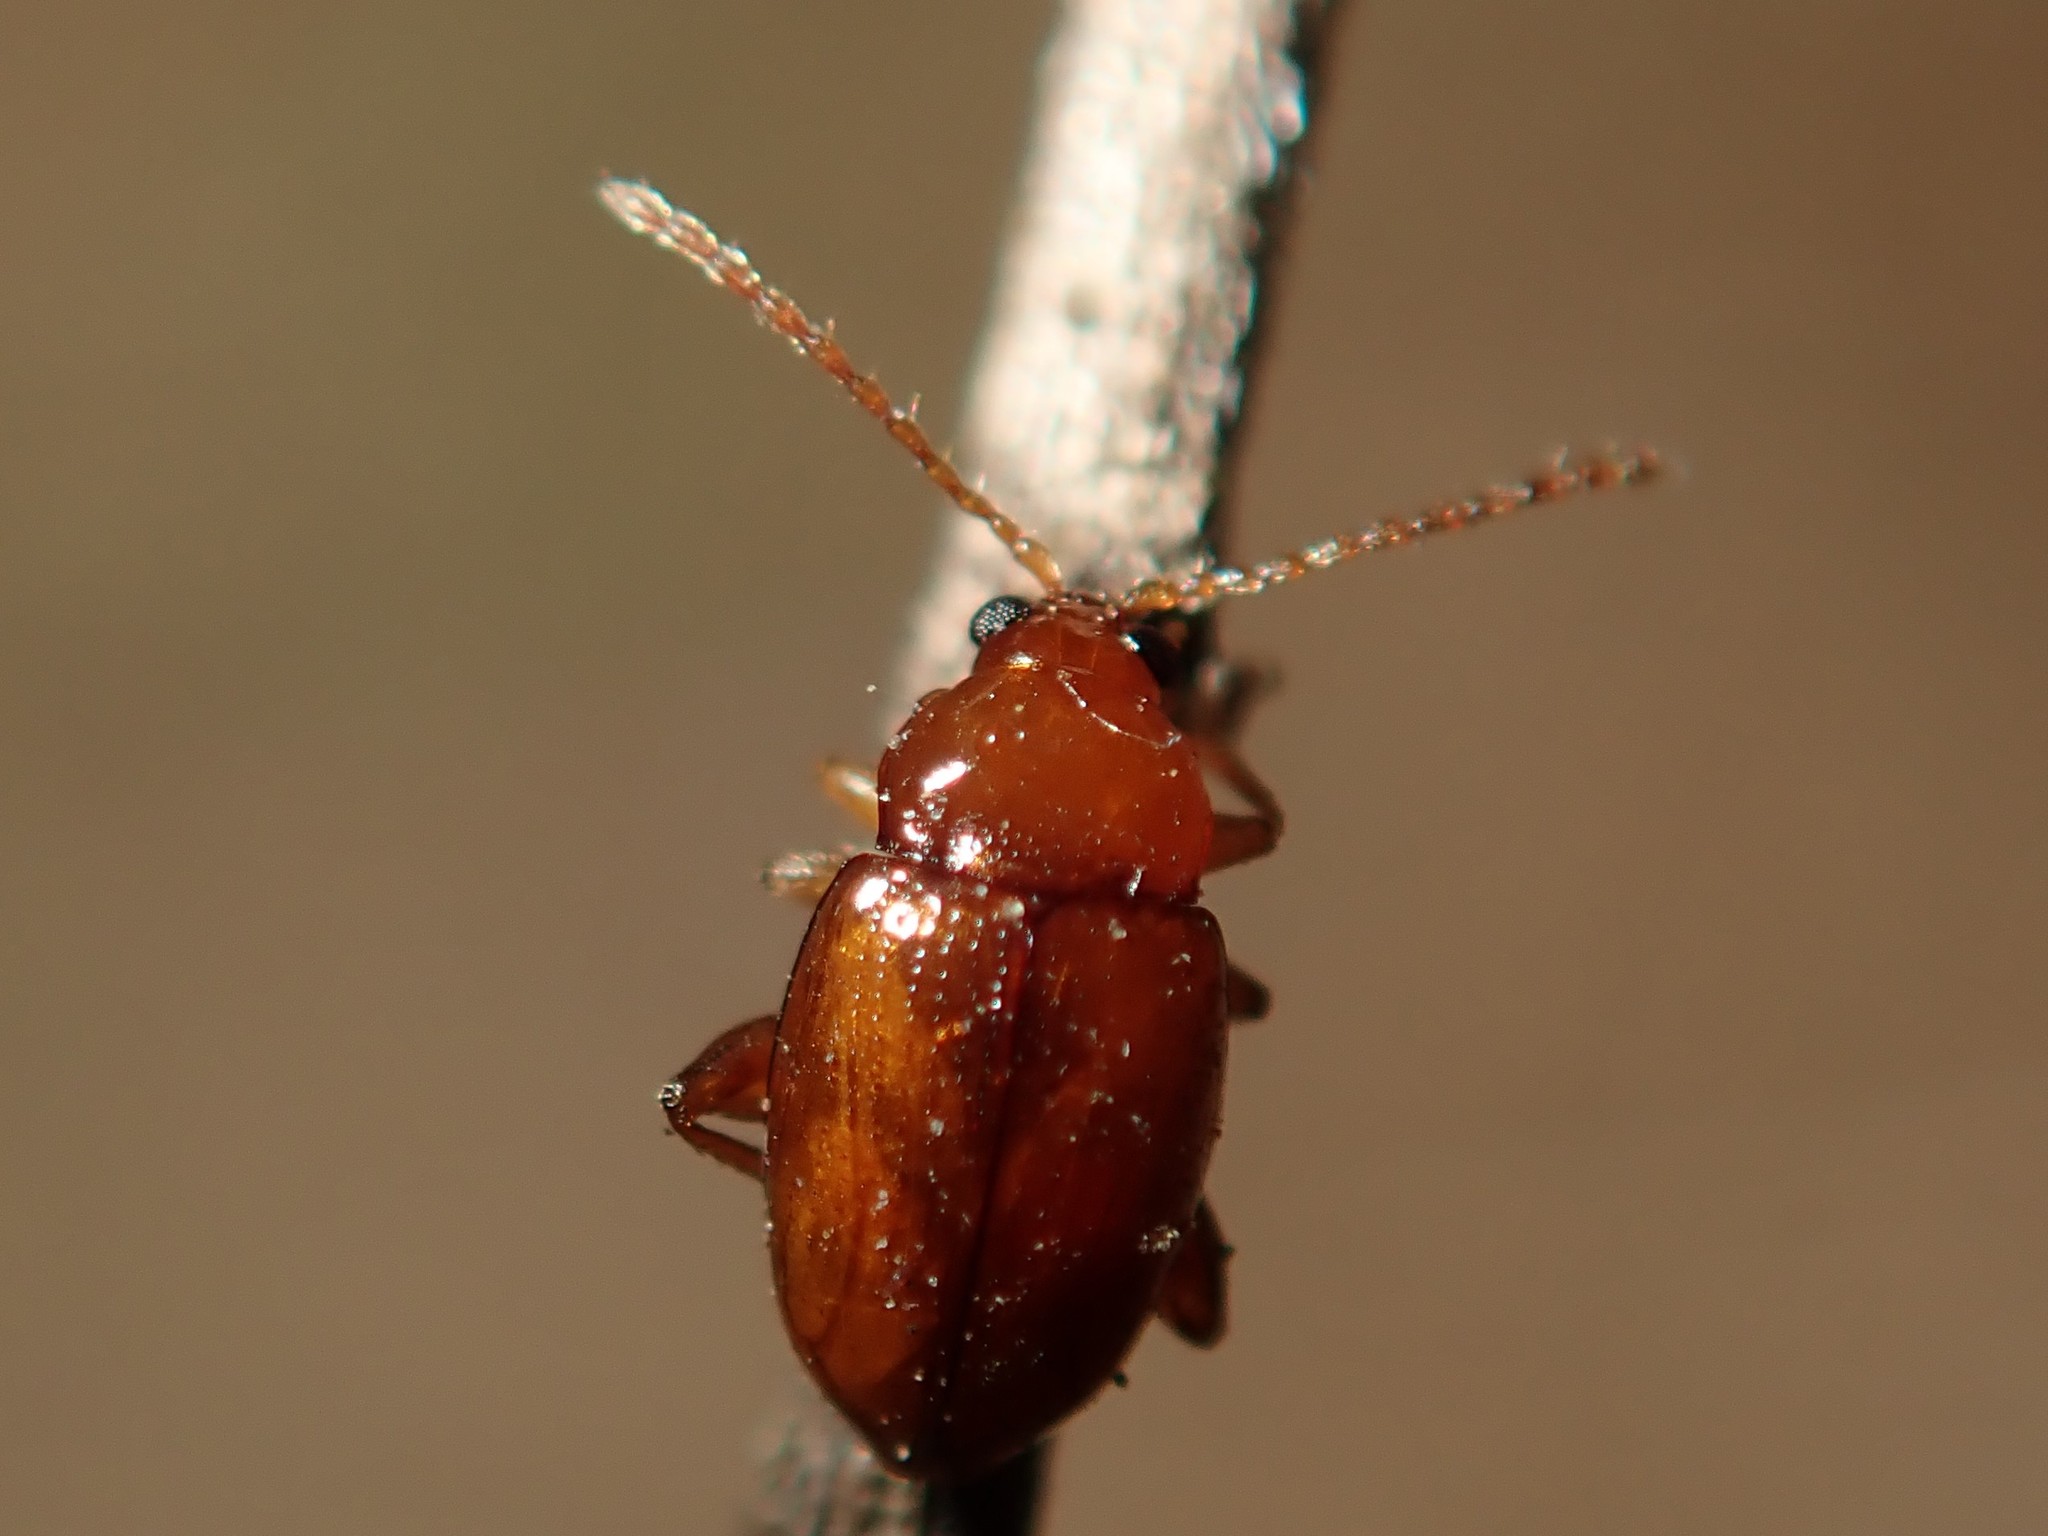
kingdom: Animalia
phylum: Arthropoda
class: Insecta
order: Coleoptera
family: Chrysomelidae
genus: Neocrepidodera
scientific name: Neocrepidodera ferruginea
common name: Wheat flea beetle
